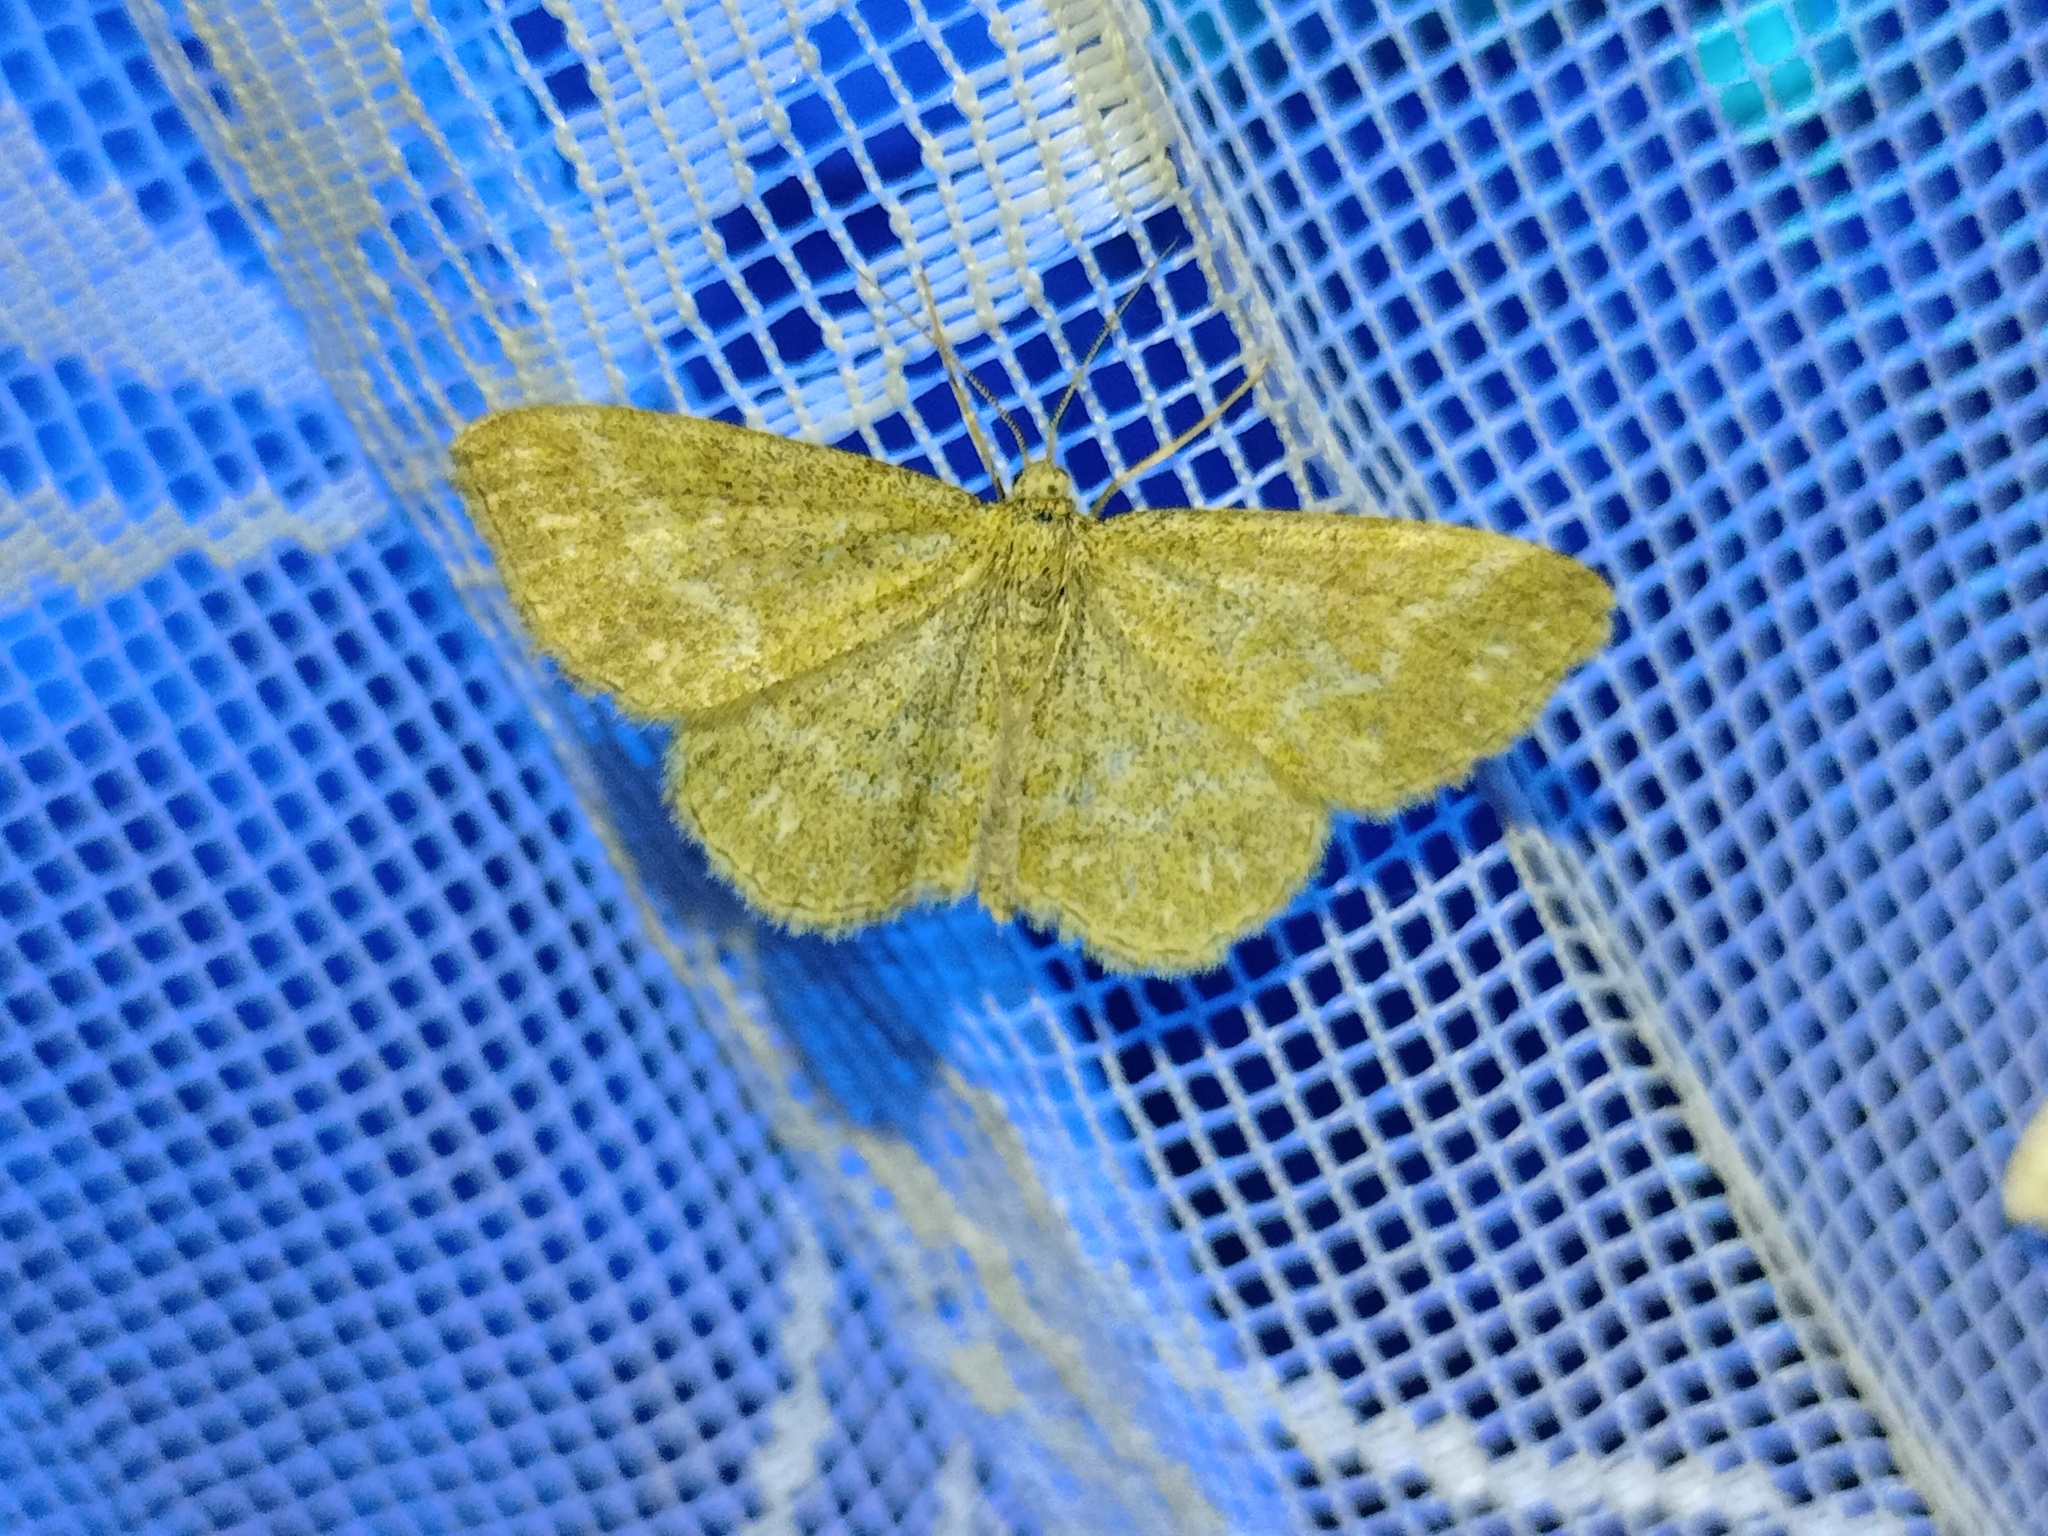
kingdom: Animalia
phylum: Arthropoda
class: Insecta
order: Lepidoptera
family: Geometridae
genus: Scopula
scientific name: Scopula immorata
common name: Lewes wave
